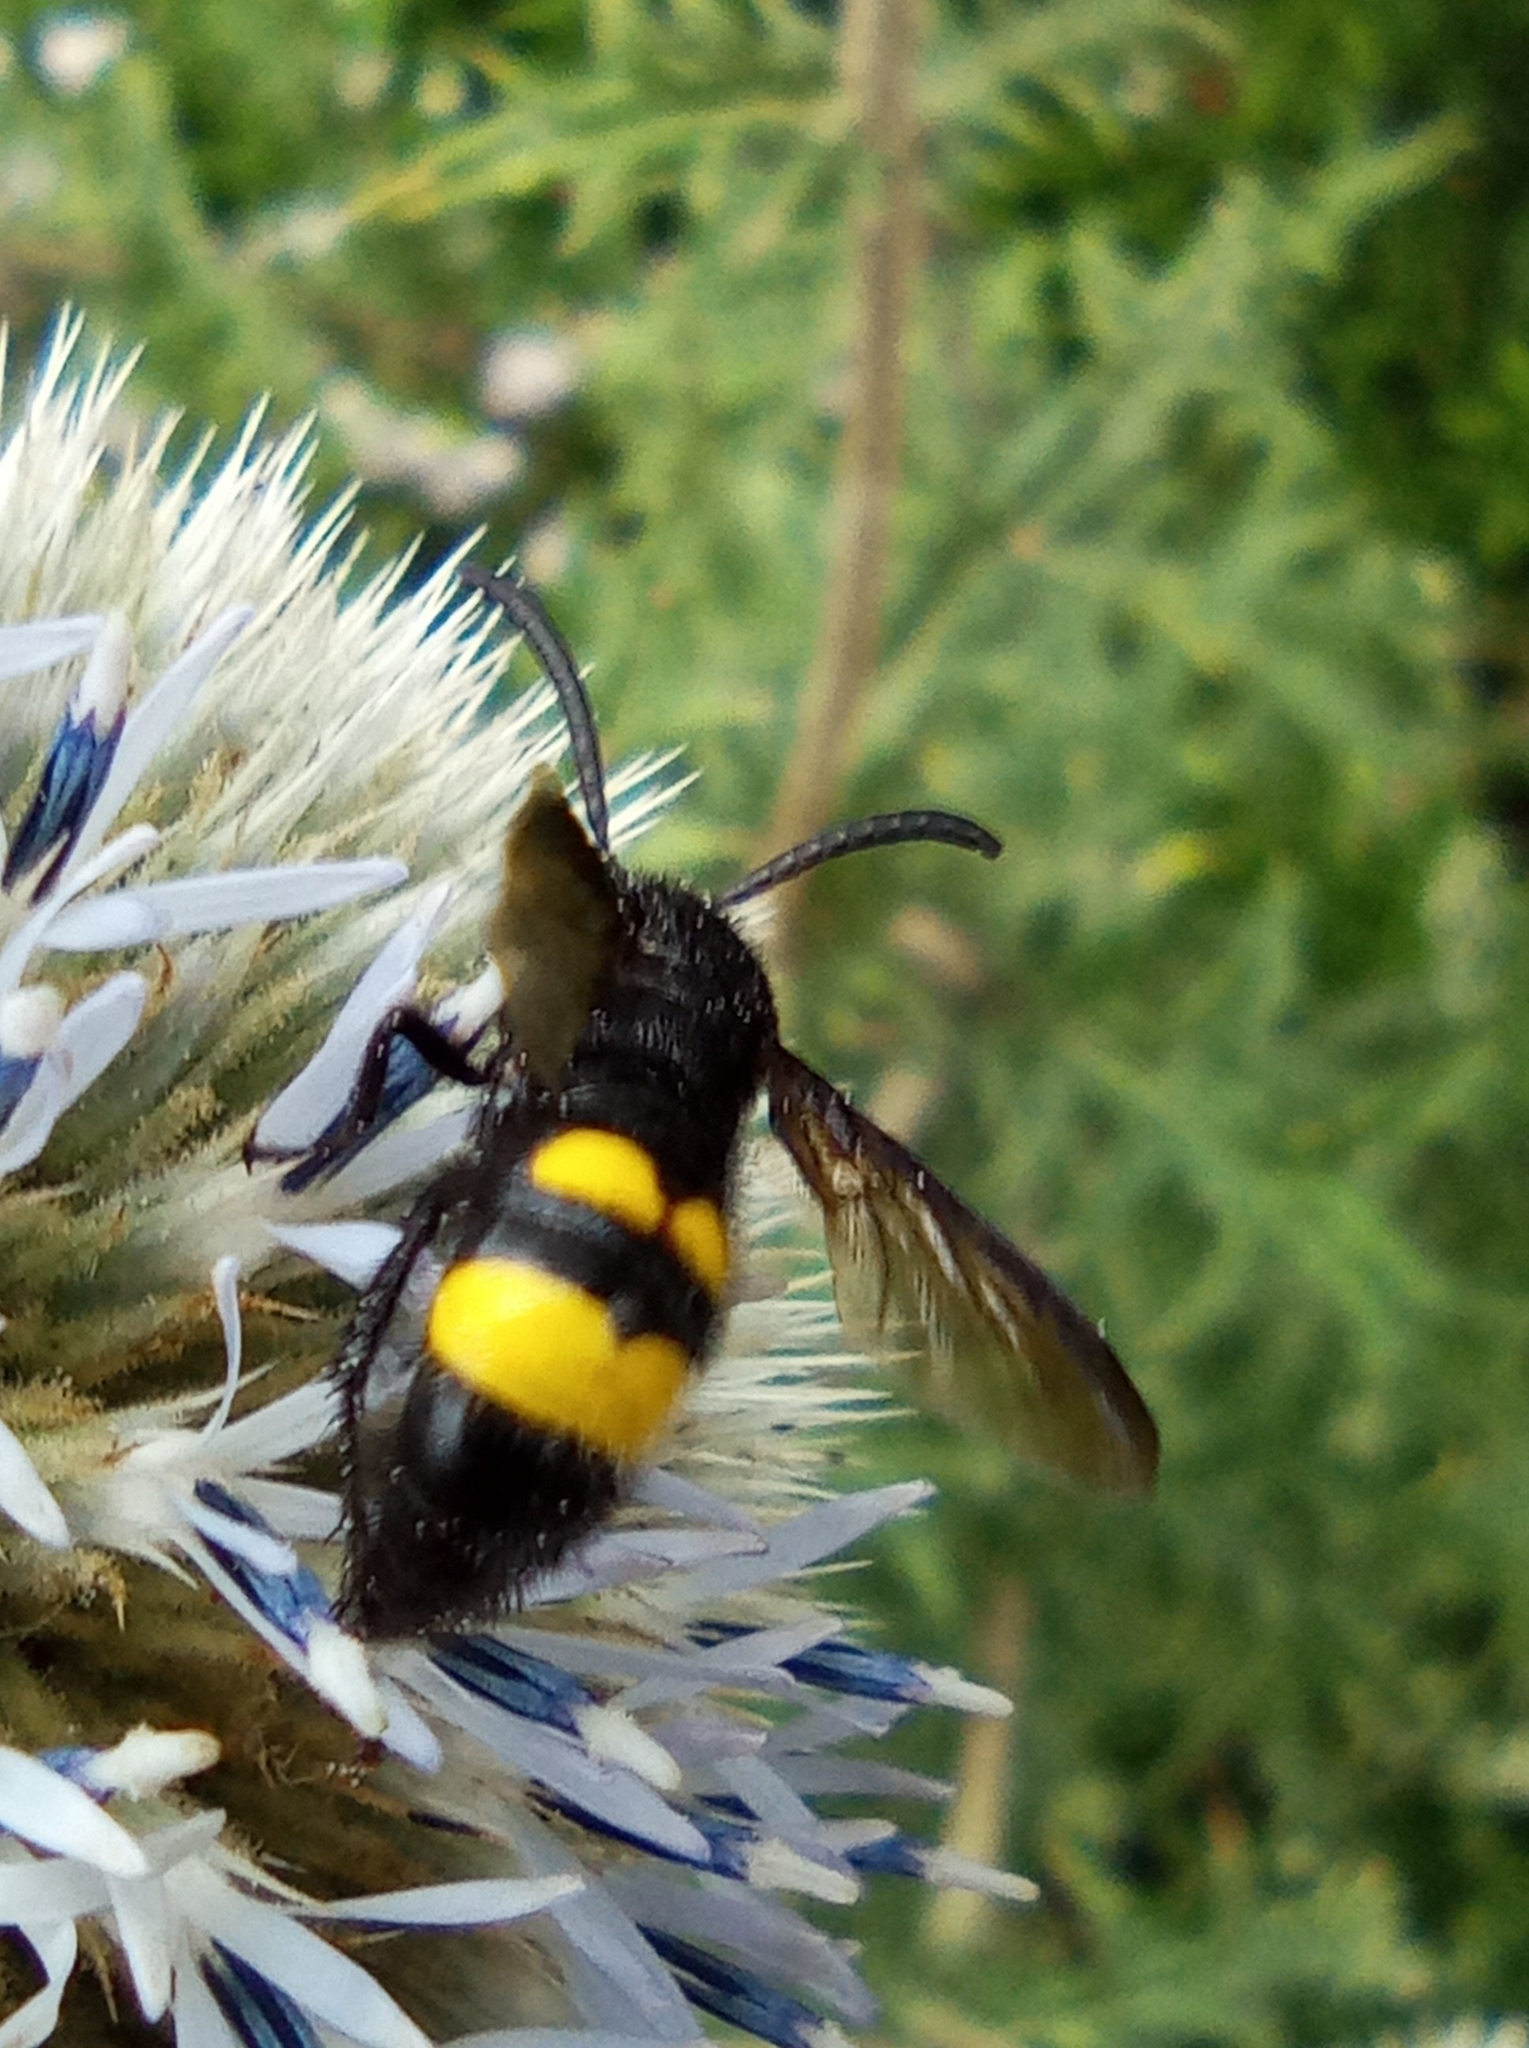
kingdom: Animalia
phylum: Arthropoda
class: Insecta
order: Hymenoptera
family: Scoliidae
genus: Scolia
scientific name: Scolia hirta
